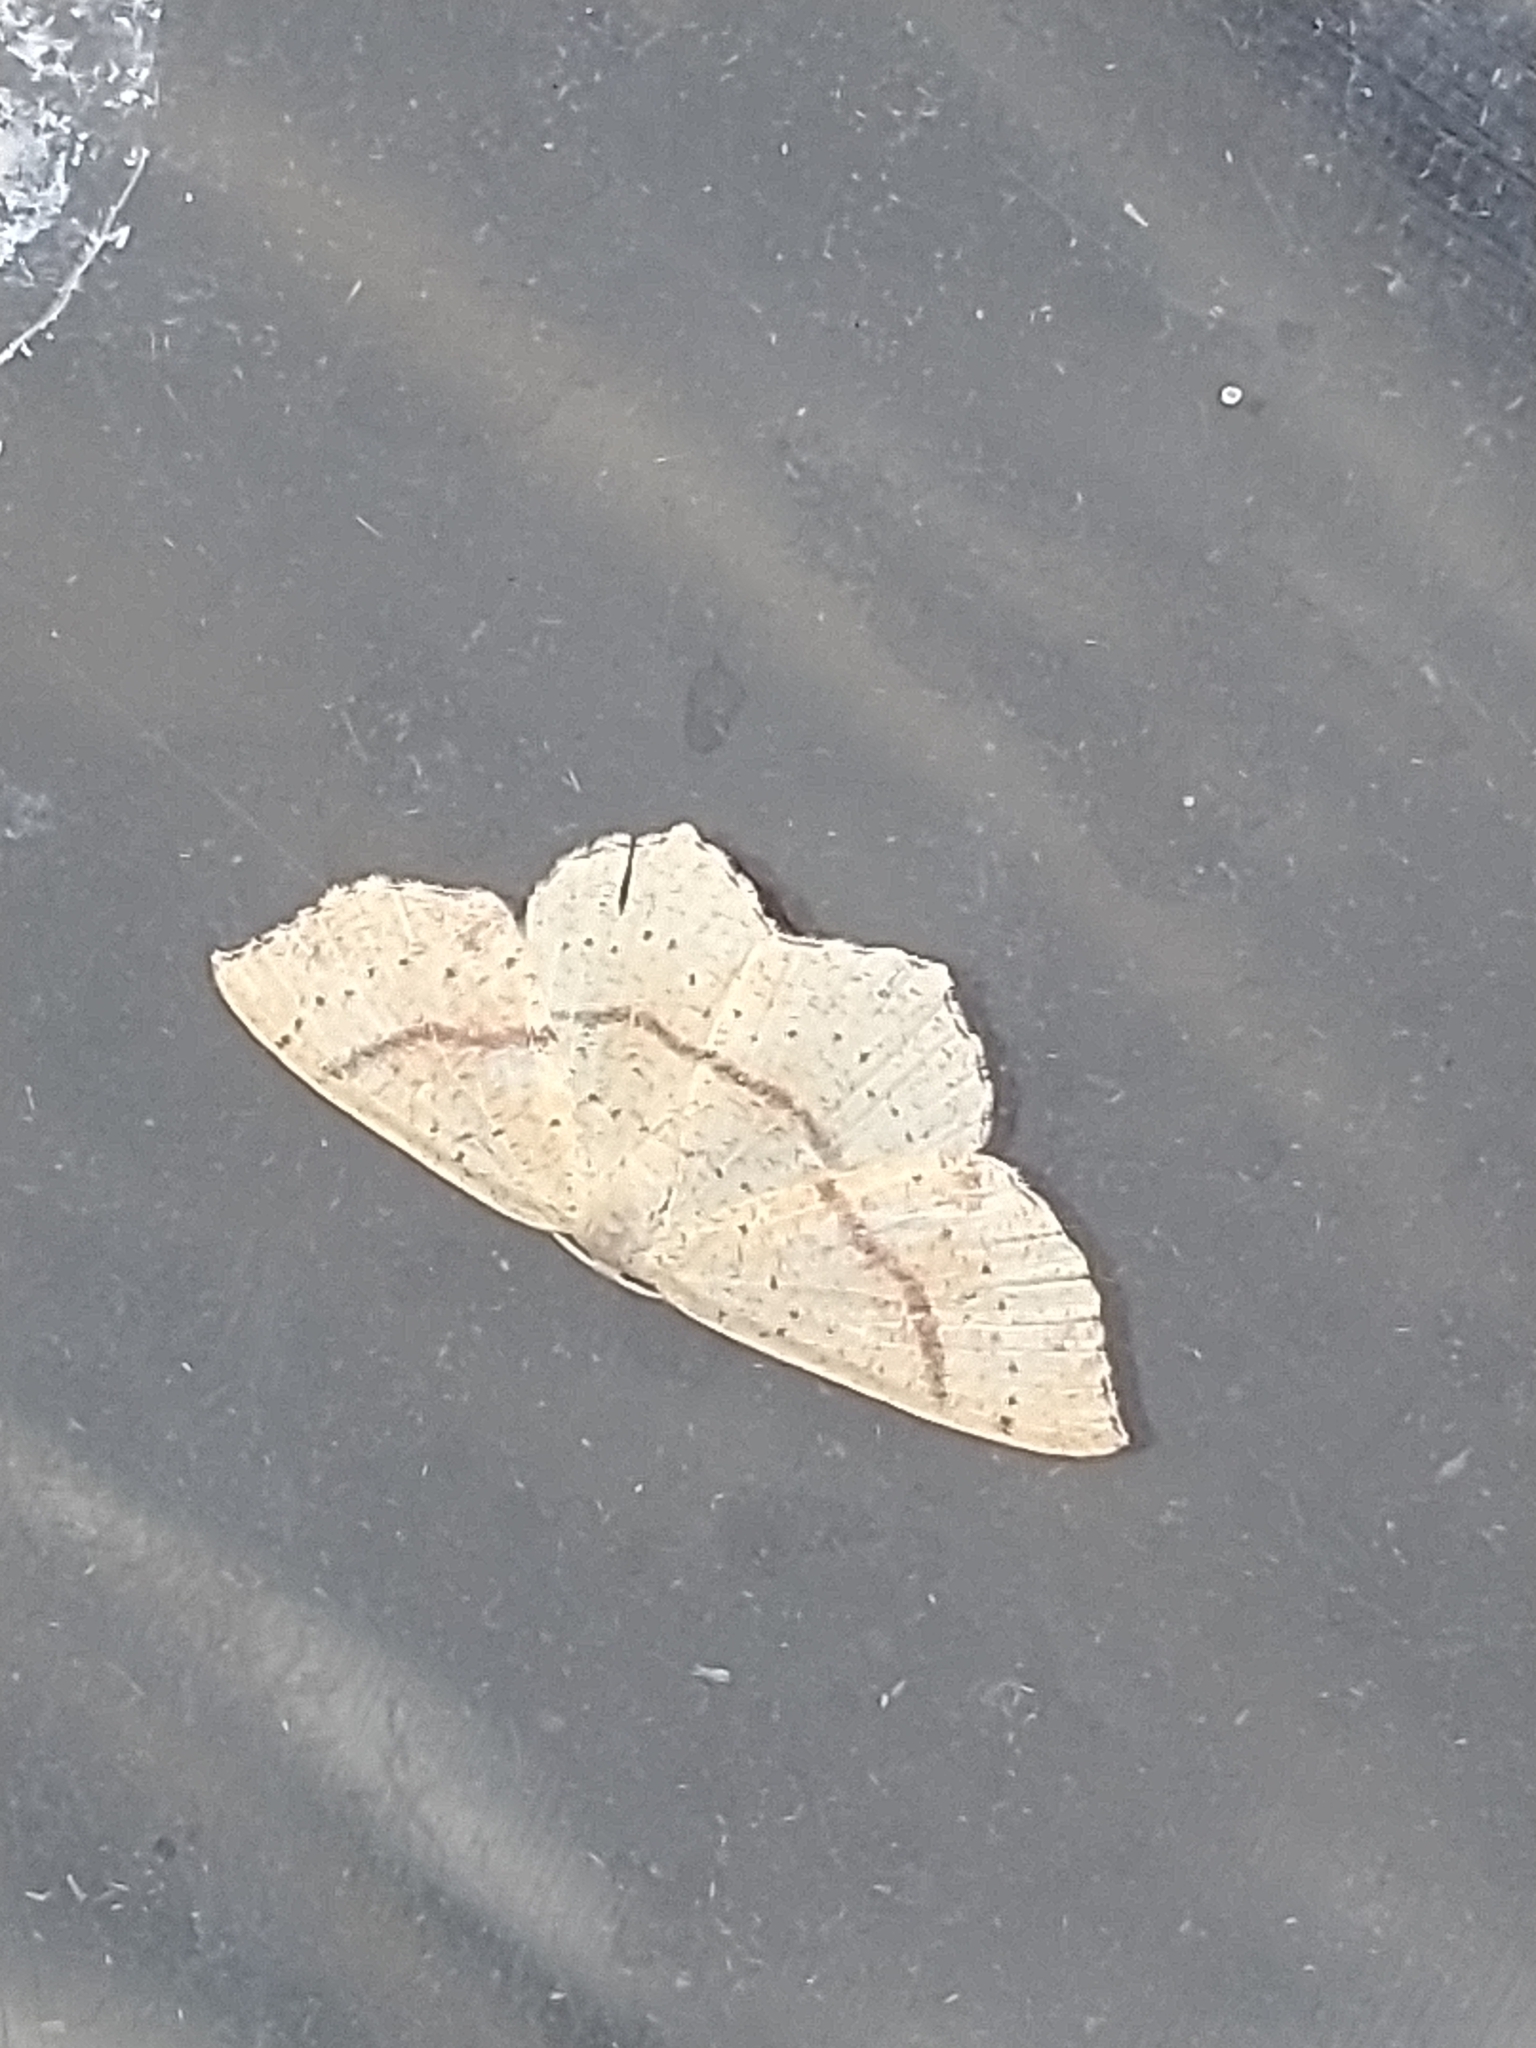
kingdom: Animalia
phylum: Arthropoda
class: Insecta
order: Lepidoptera
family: Geometridae
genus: Cyclophora
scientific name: Cyclophora punctaria
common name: Maiden's blush
